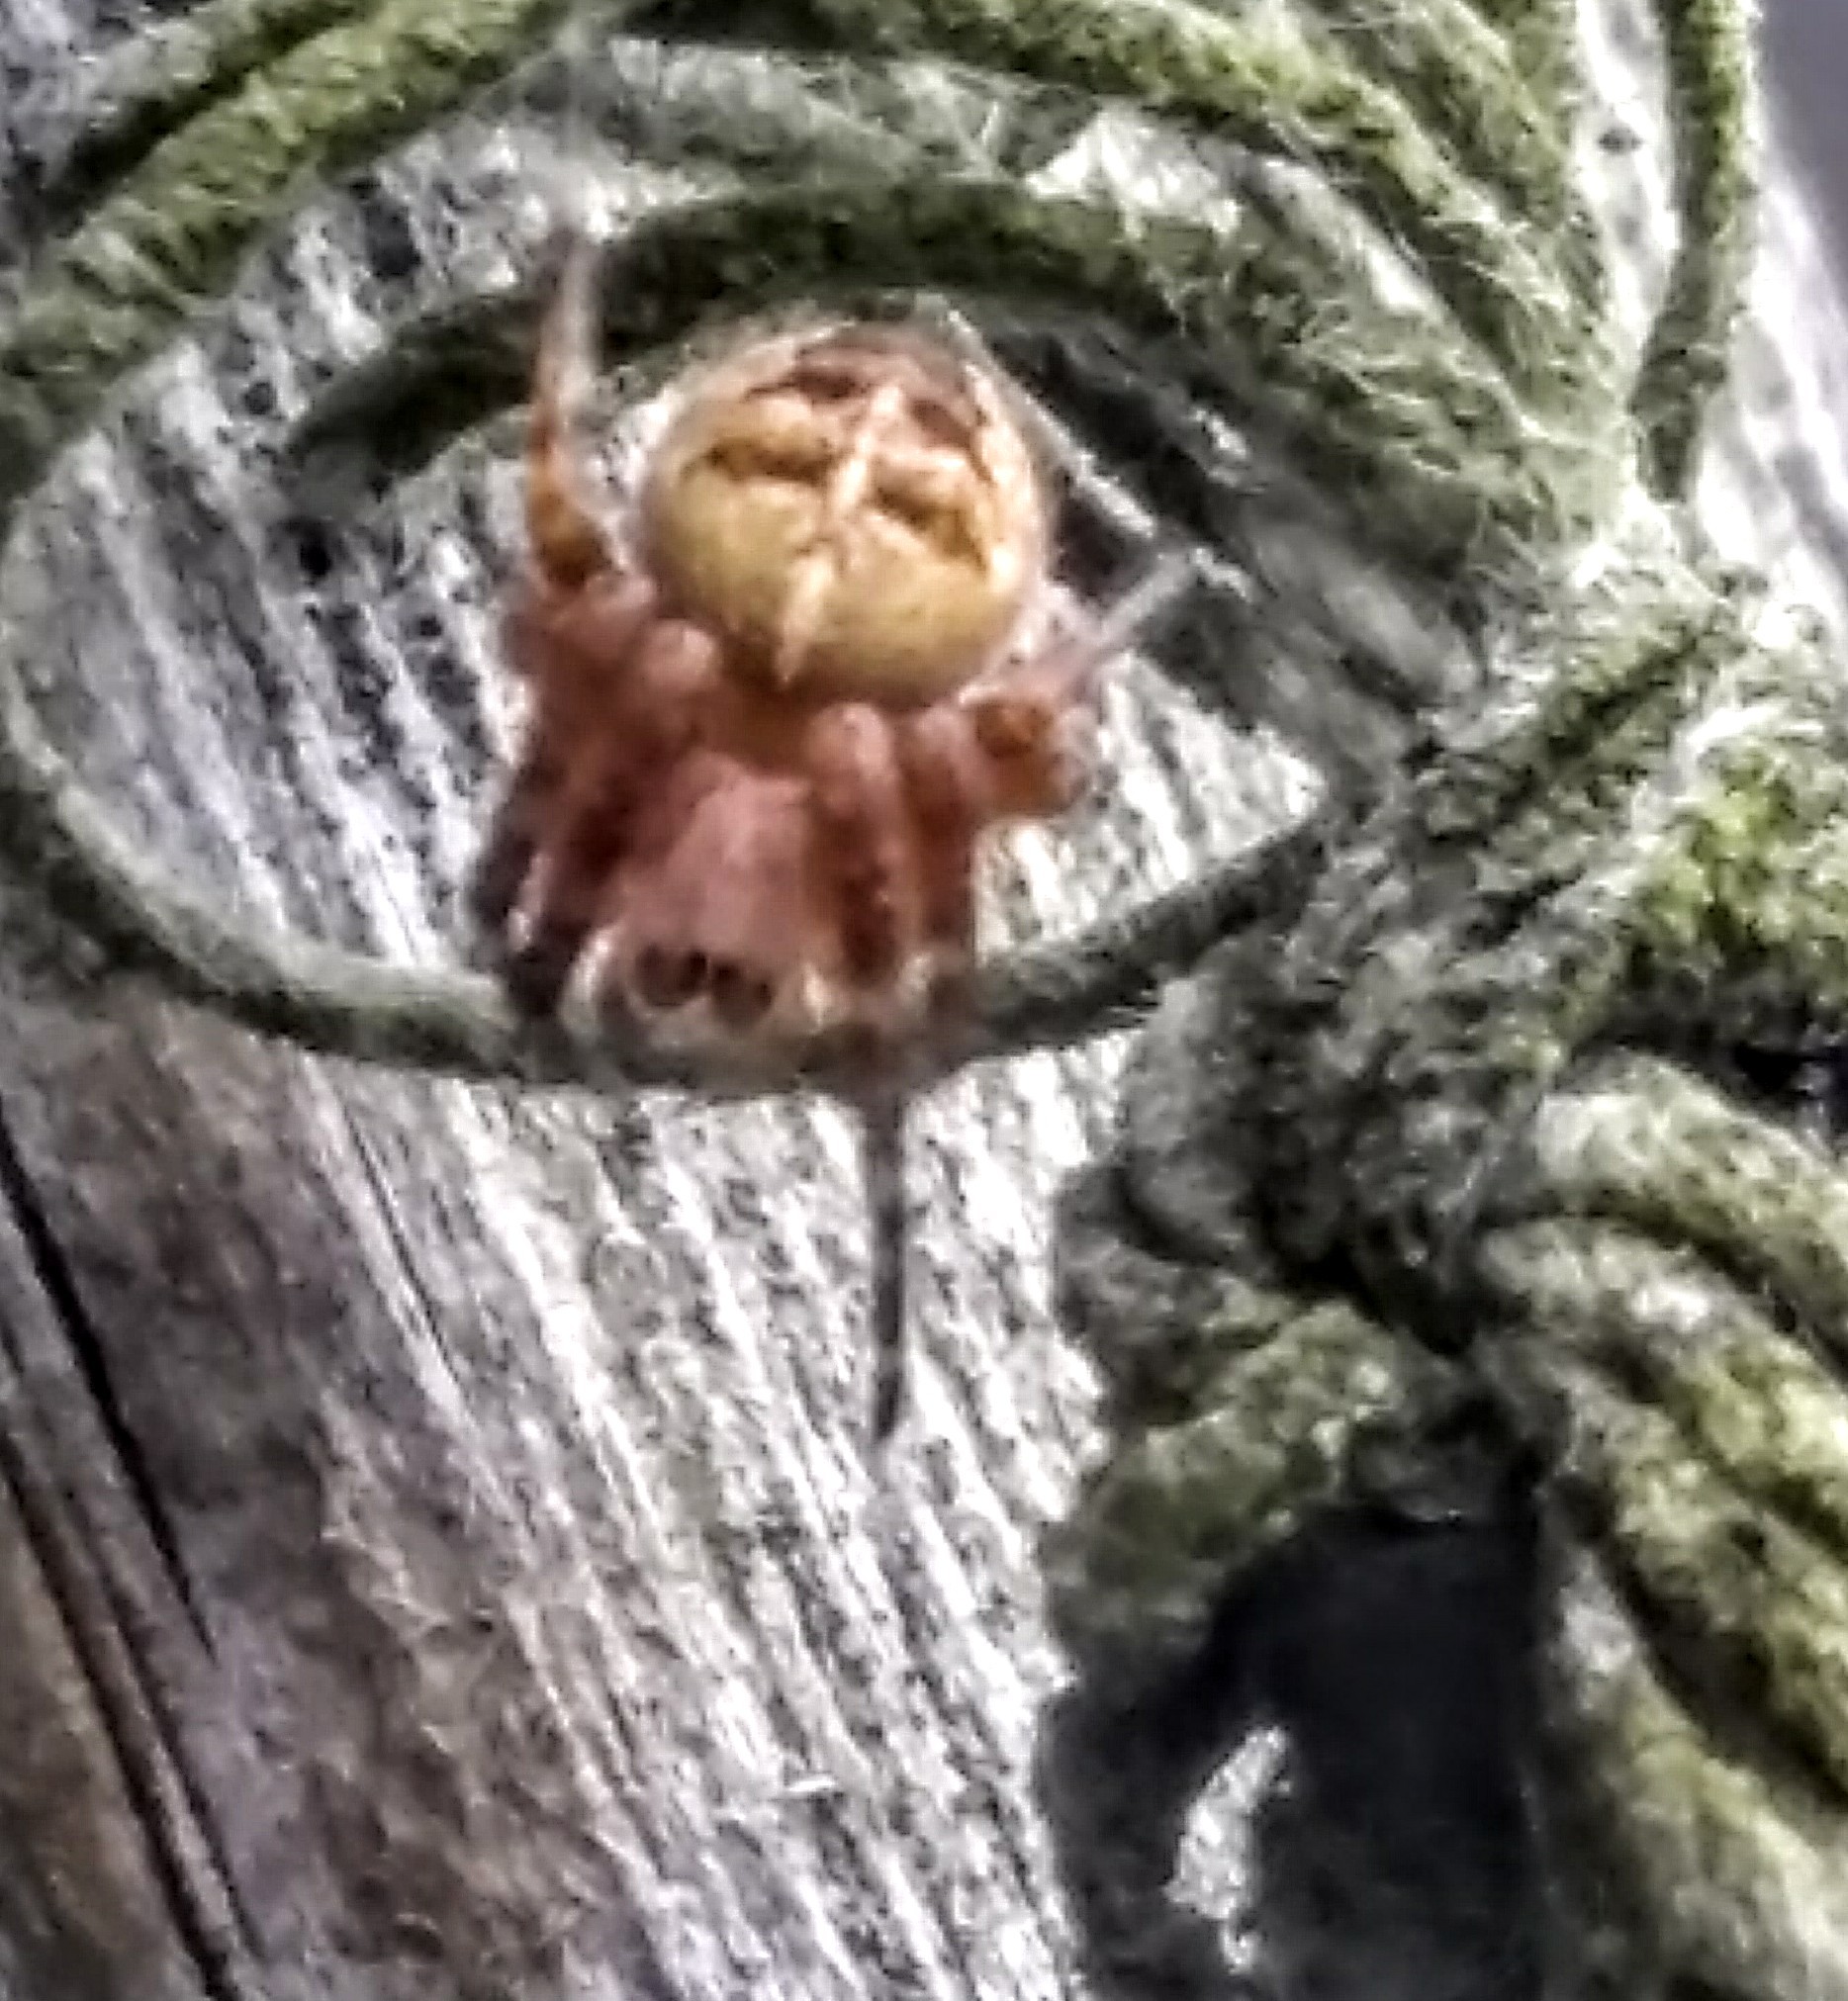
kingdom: Animalia
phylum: Arthropoda
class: Arachnida
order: Araneae
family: Araneidae
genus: Araneus
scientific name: Araneus diadematus
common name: Cross orbweaver
